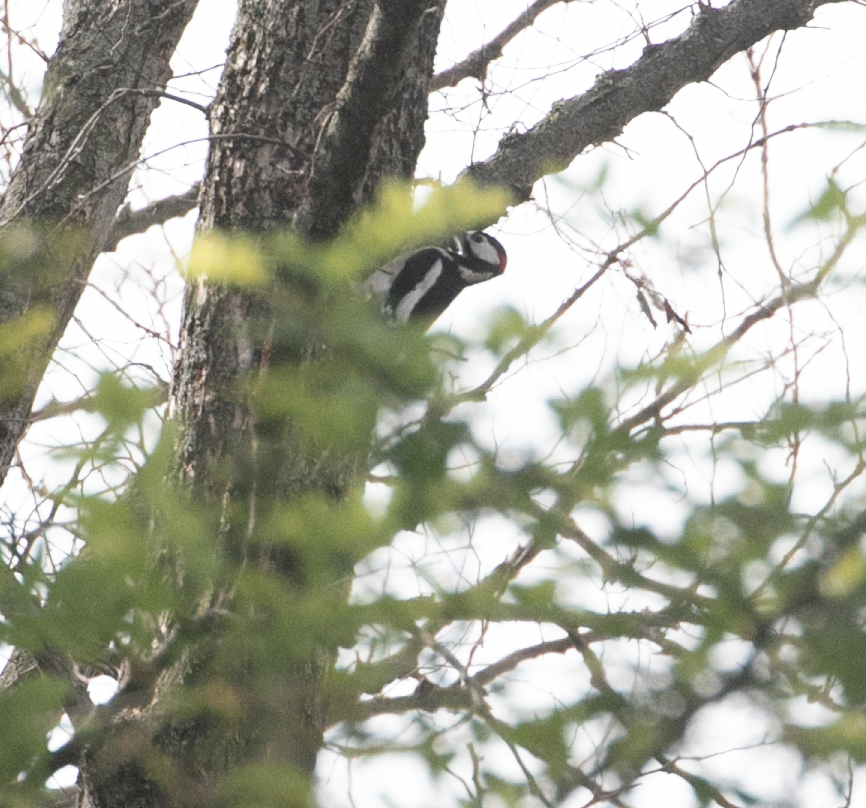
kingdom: Animalia
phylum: Chordata
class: Aves
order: Piciformes
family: Picidae
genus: Dendrocopos
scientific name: Dendrocopos major
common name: Great spotted woodpecker
